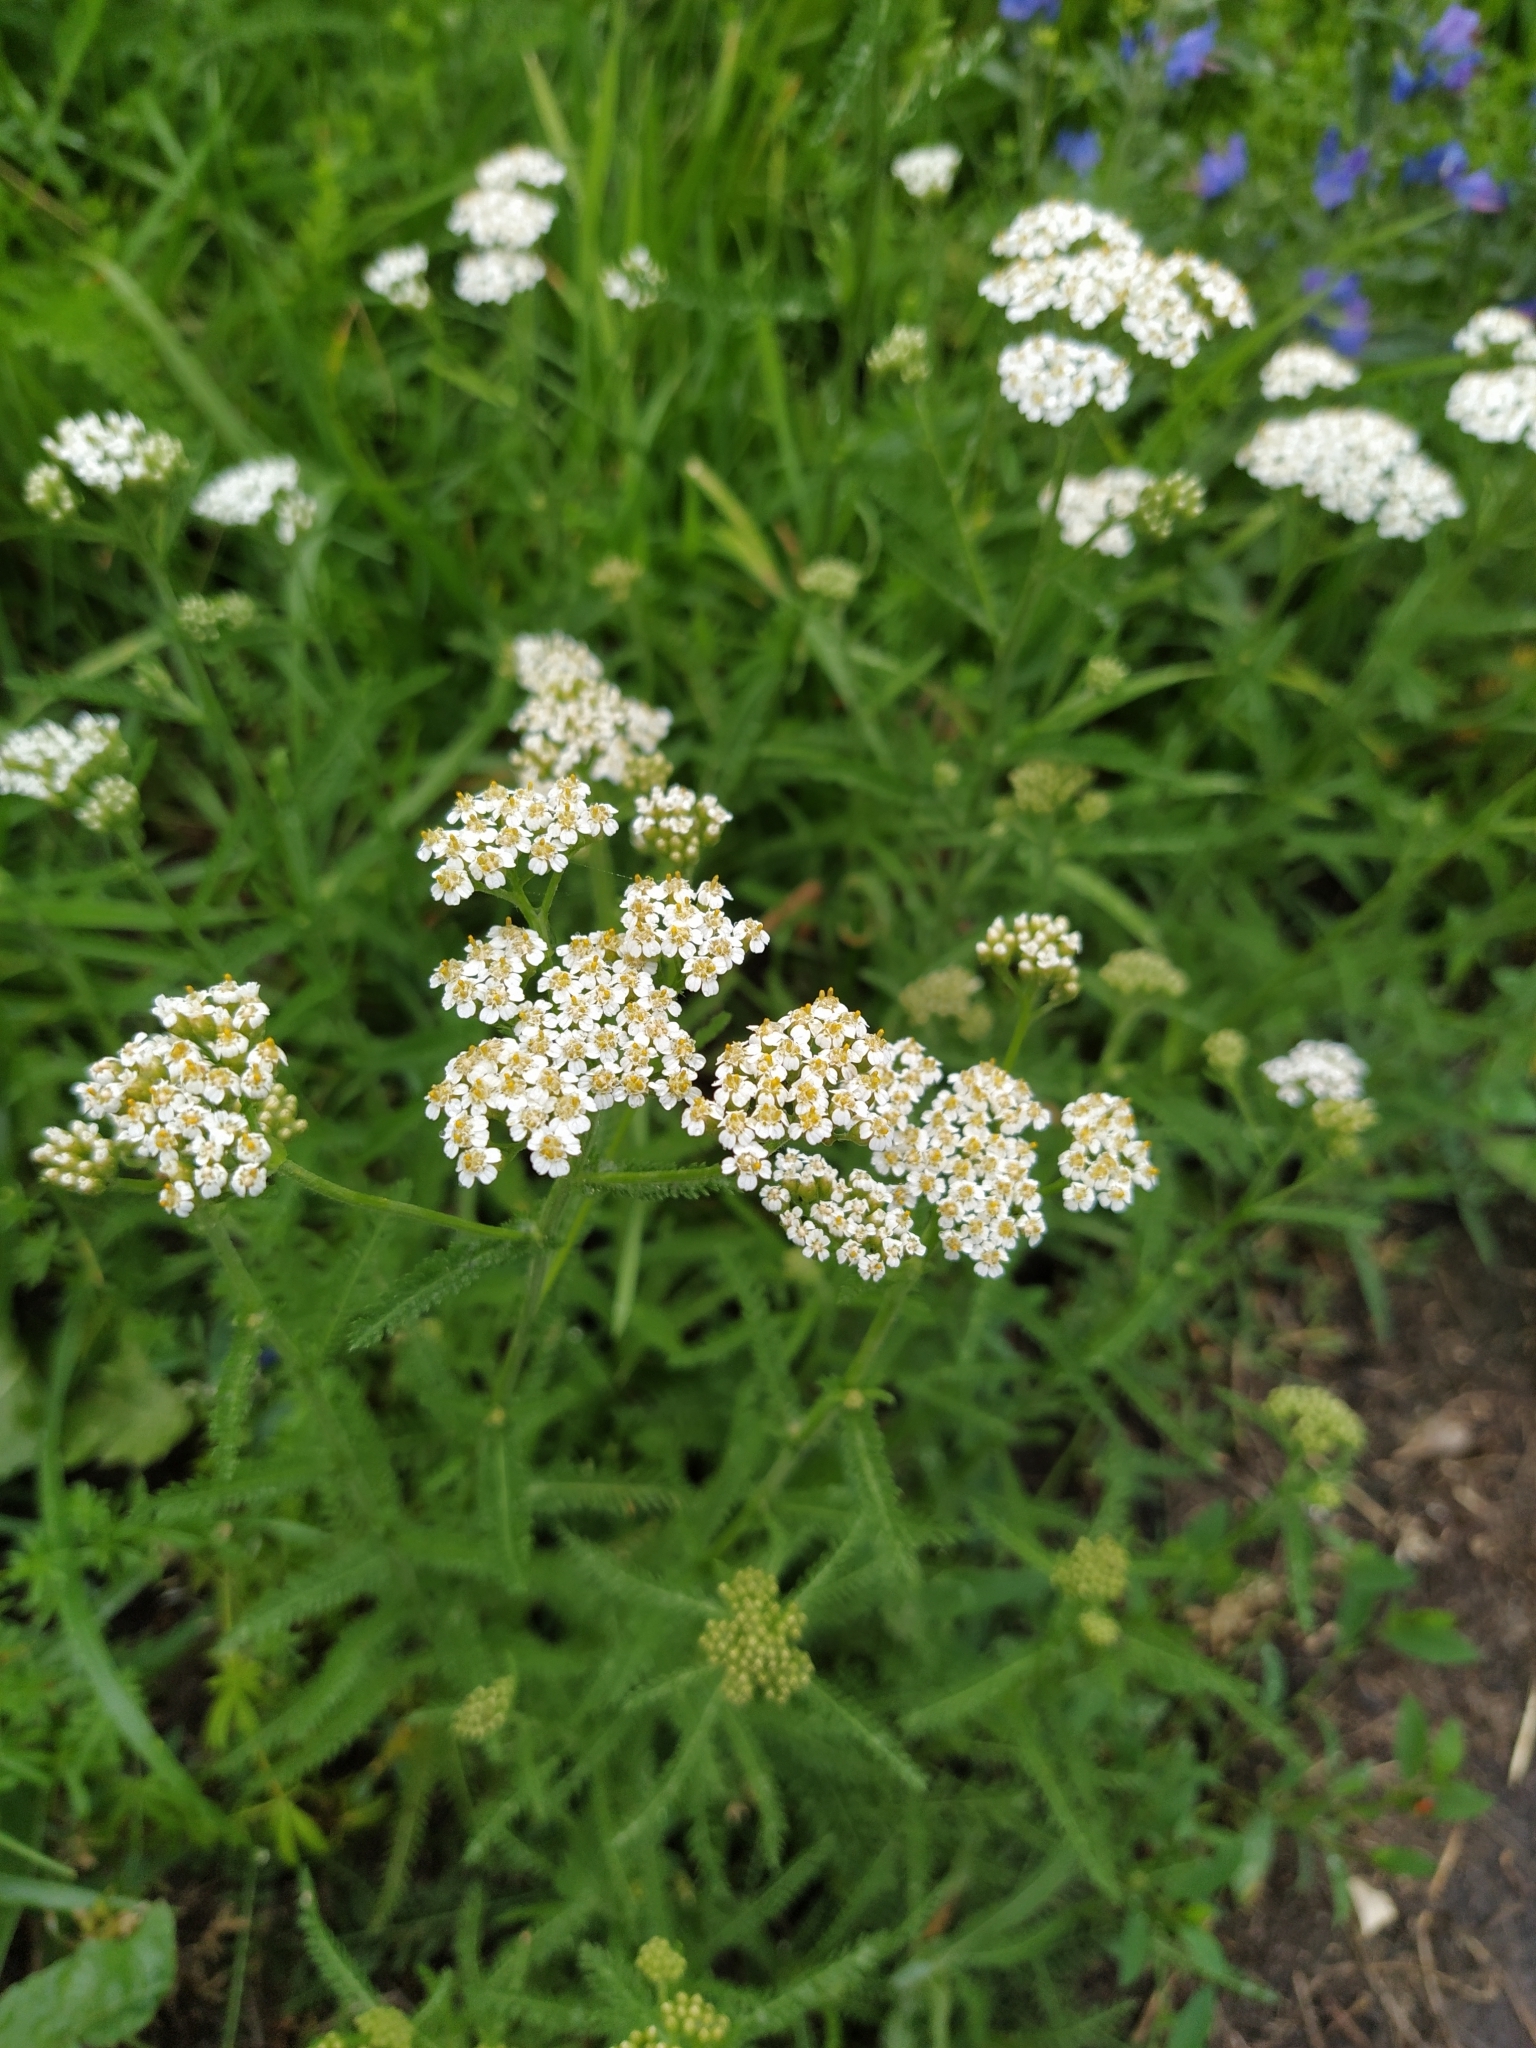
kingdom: Plantae
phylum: Tracheophyta
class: Magnoliopsida
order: Asterales
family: Asteraceae
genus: Achillea
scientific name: Achillea millefolium
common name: Yarrow
